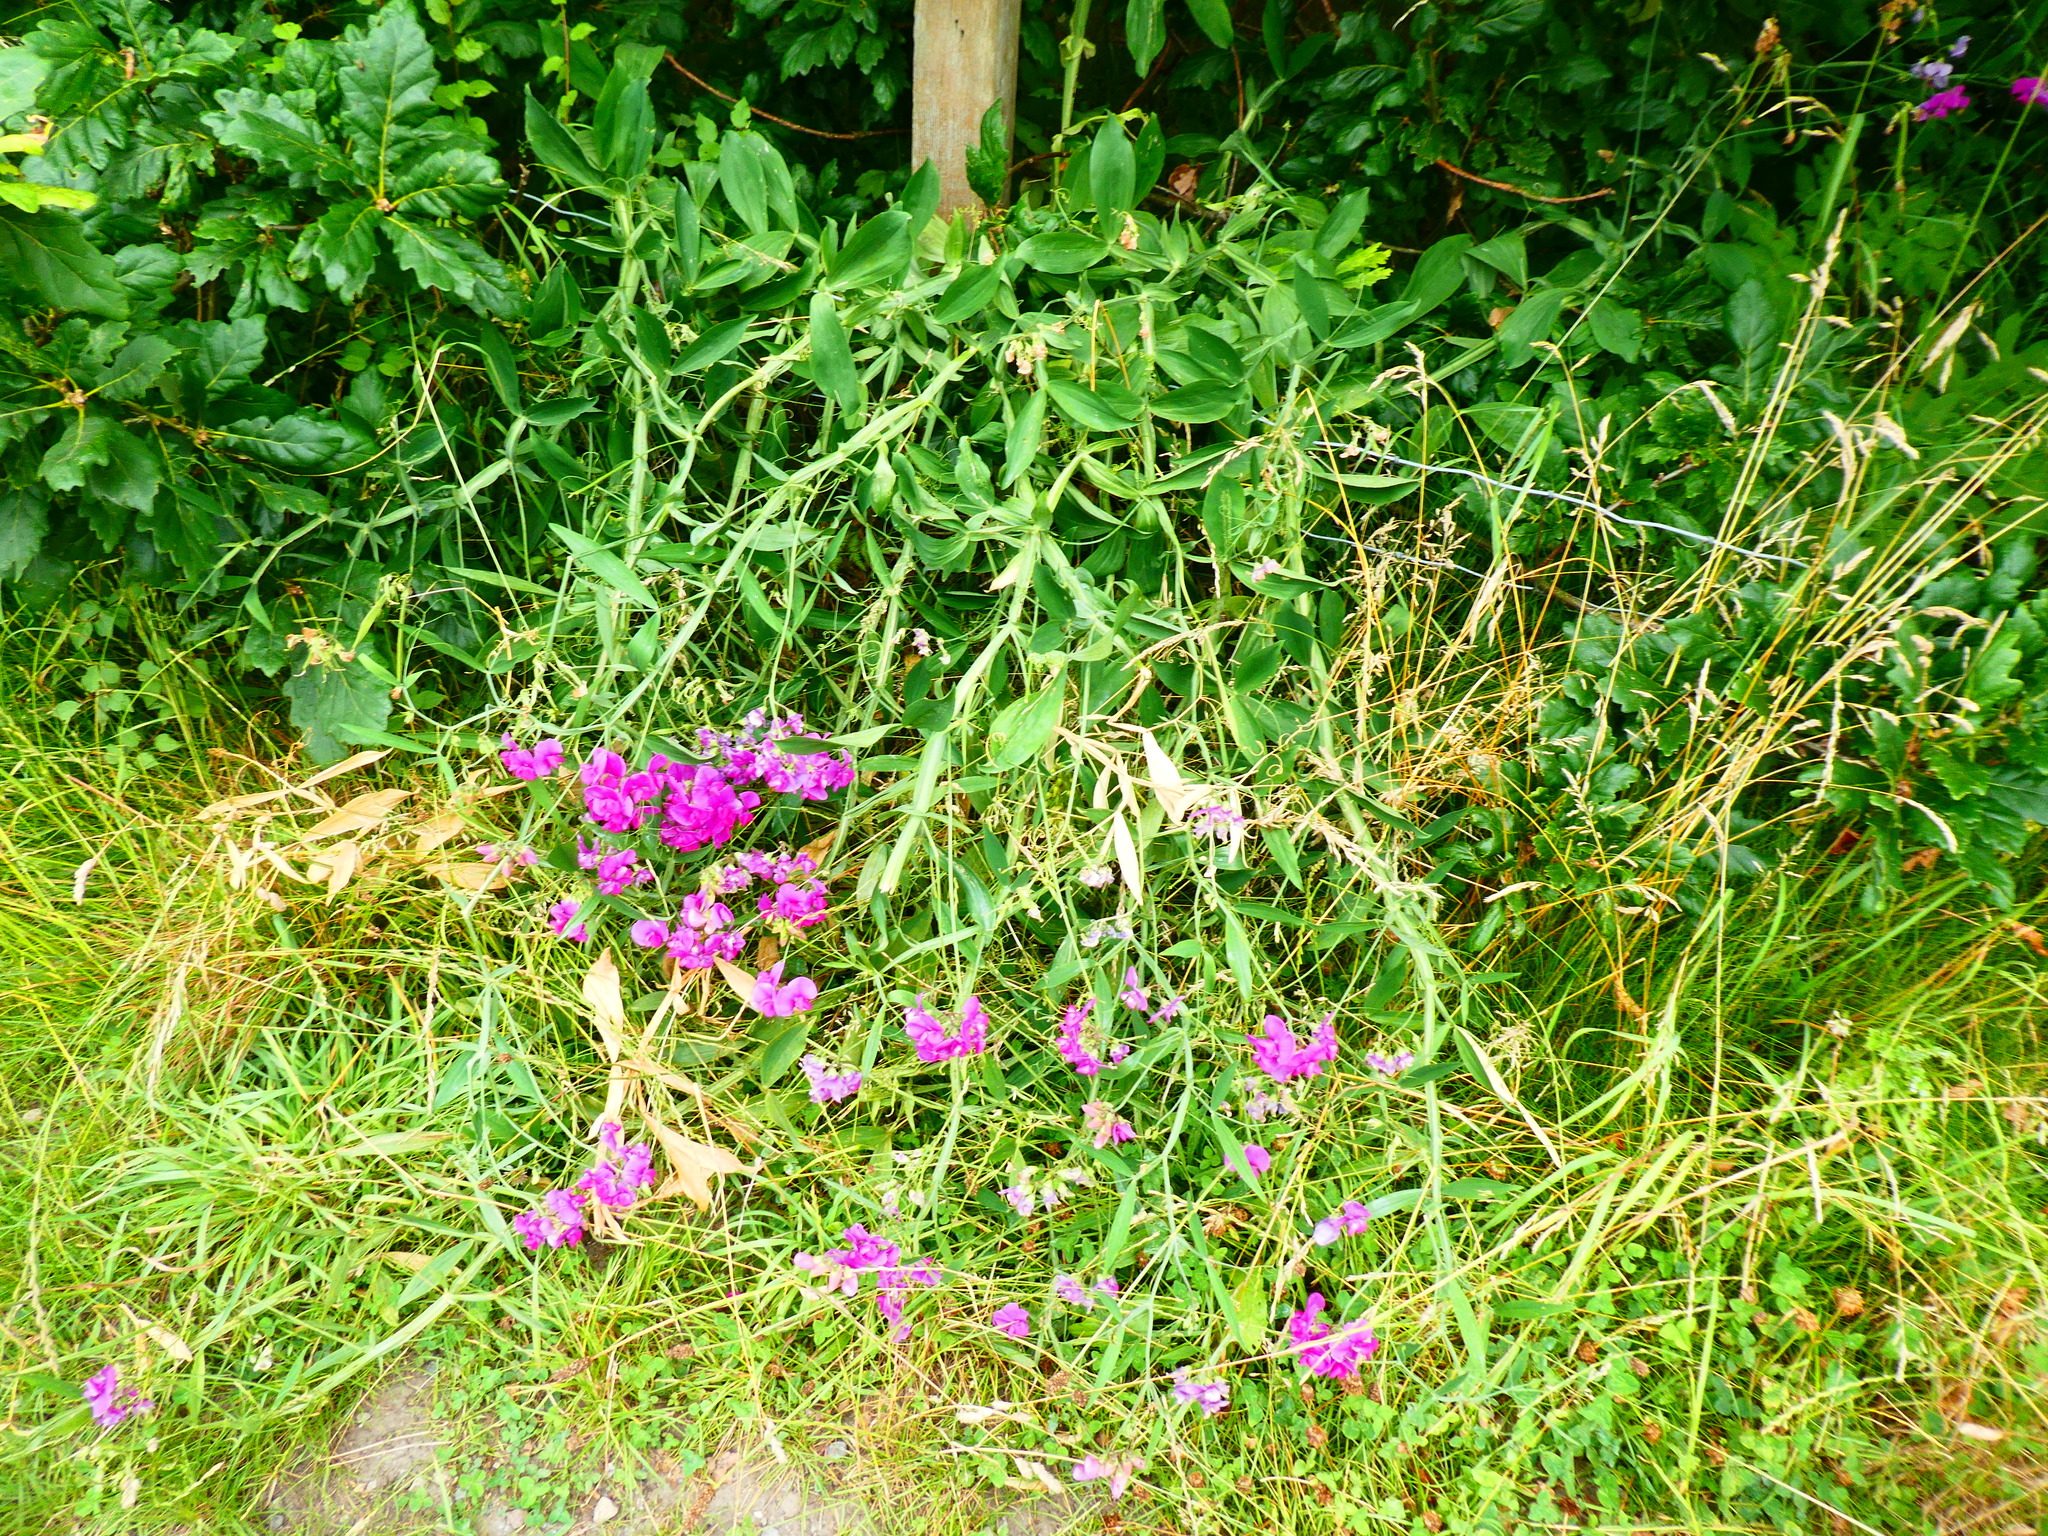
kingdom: Plantae
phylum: Tracheophyta
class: Magnoliopsida
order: Fabales
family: Fabaceae
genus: Lathyrus
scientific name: Lathyrus latifolius
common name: Perennial pea
